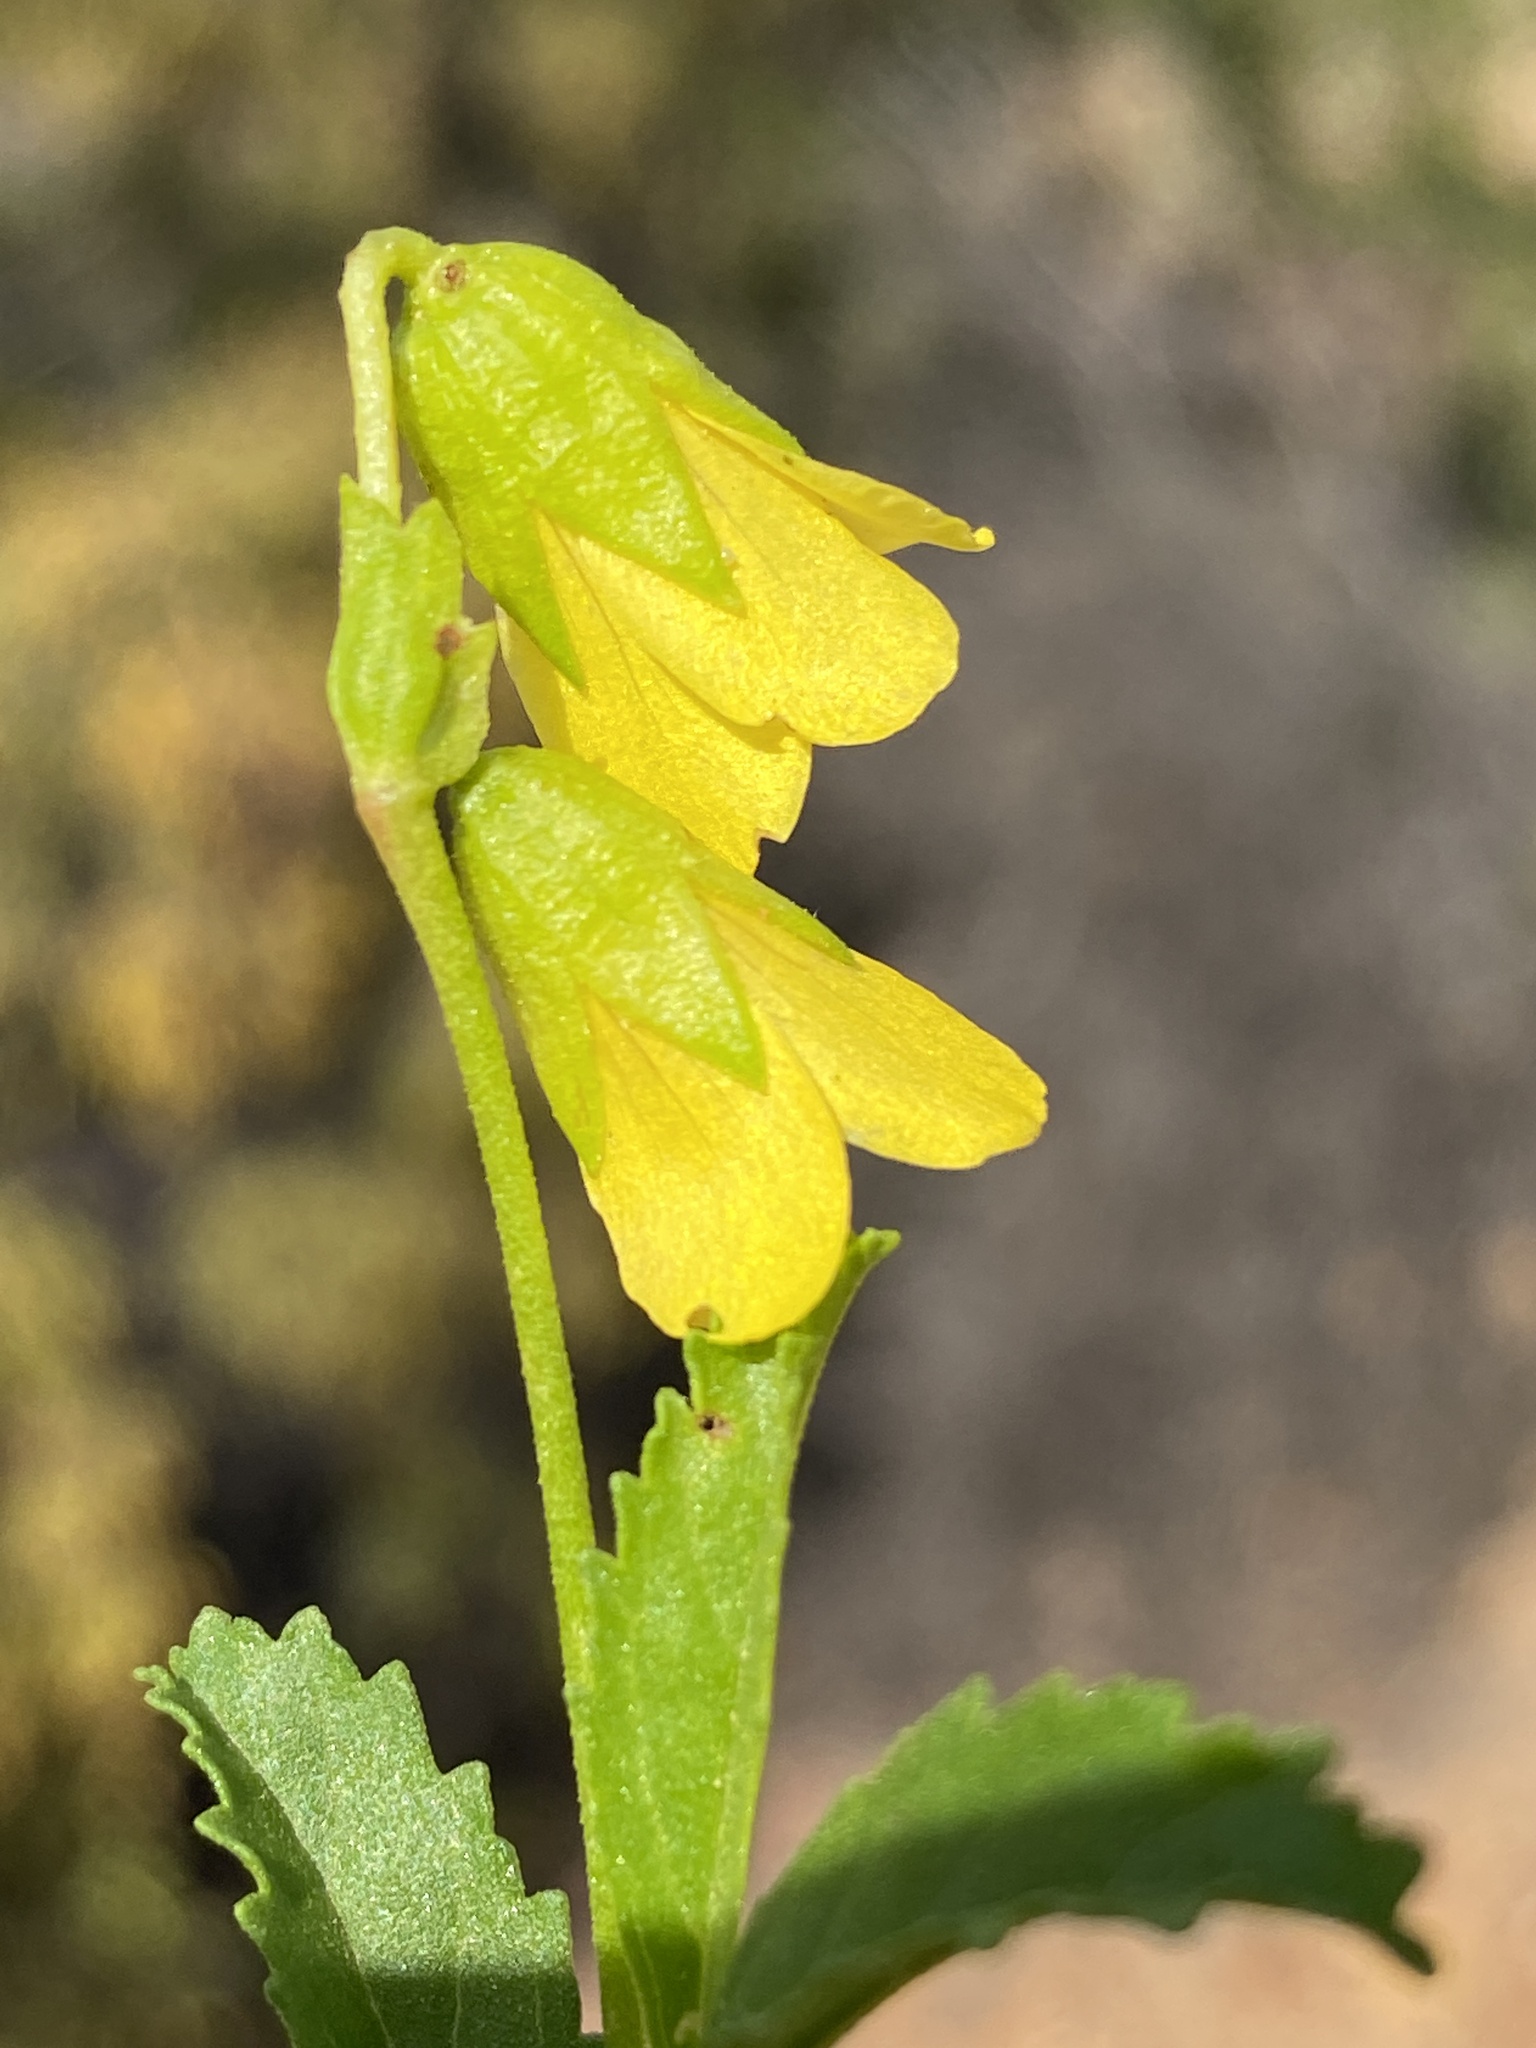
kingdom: Plantae
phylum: Tracheophyta
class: Magnoliopsida
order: Malvales
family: Malvaceae
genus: Hermannia
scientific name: Hermannia saccifera
